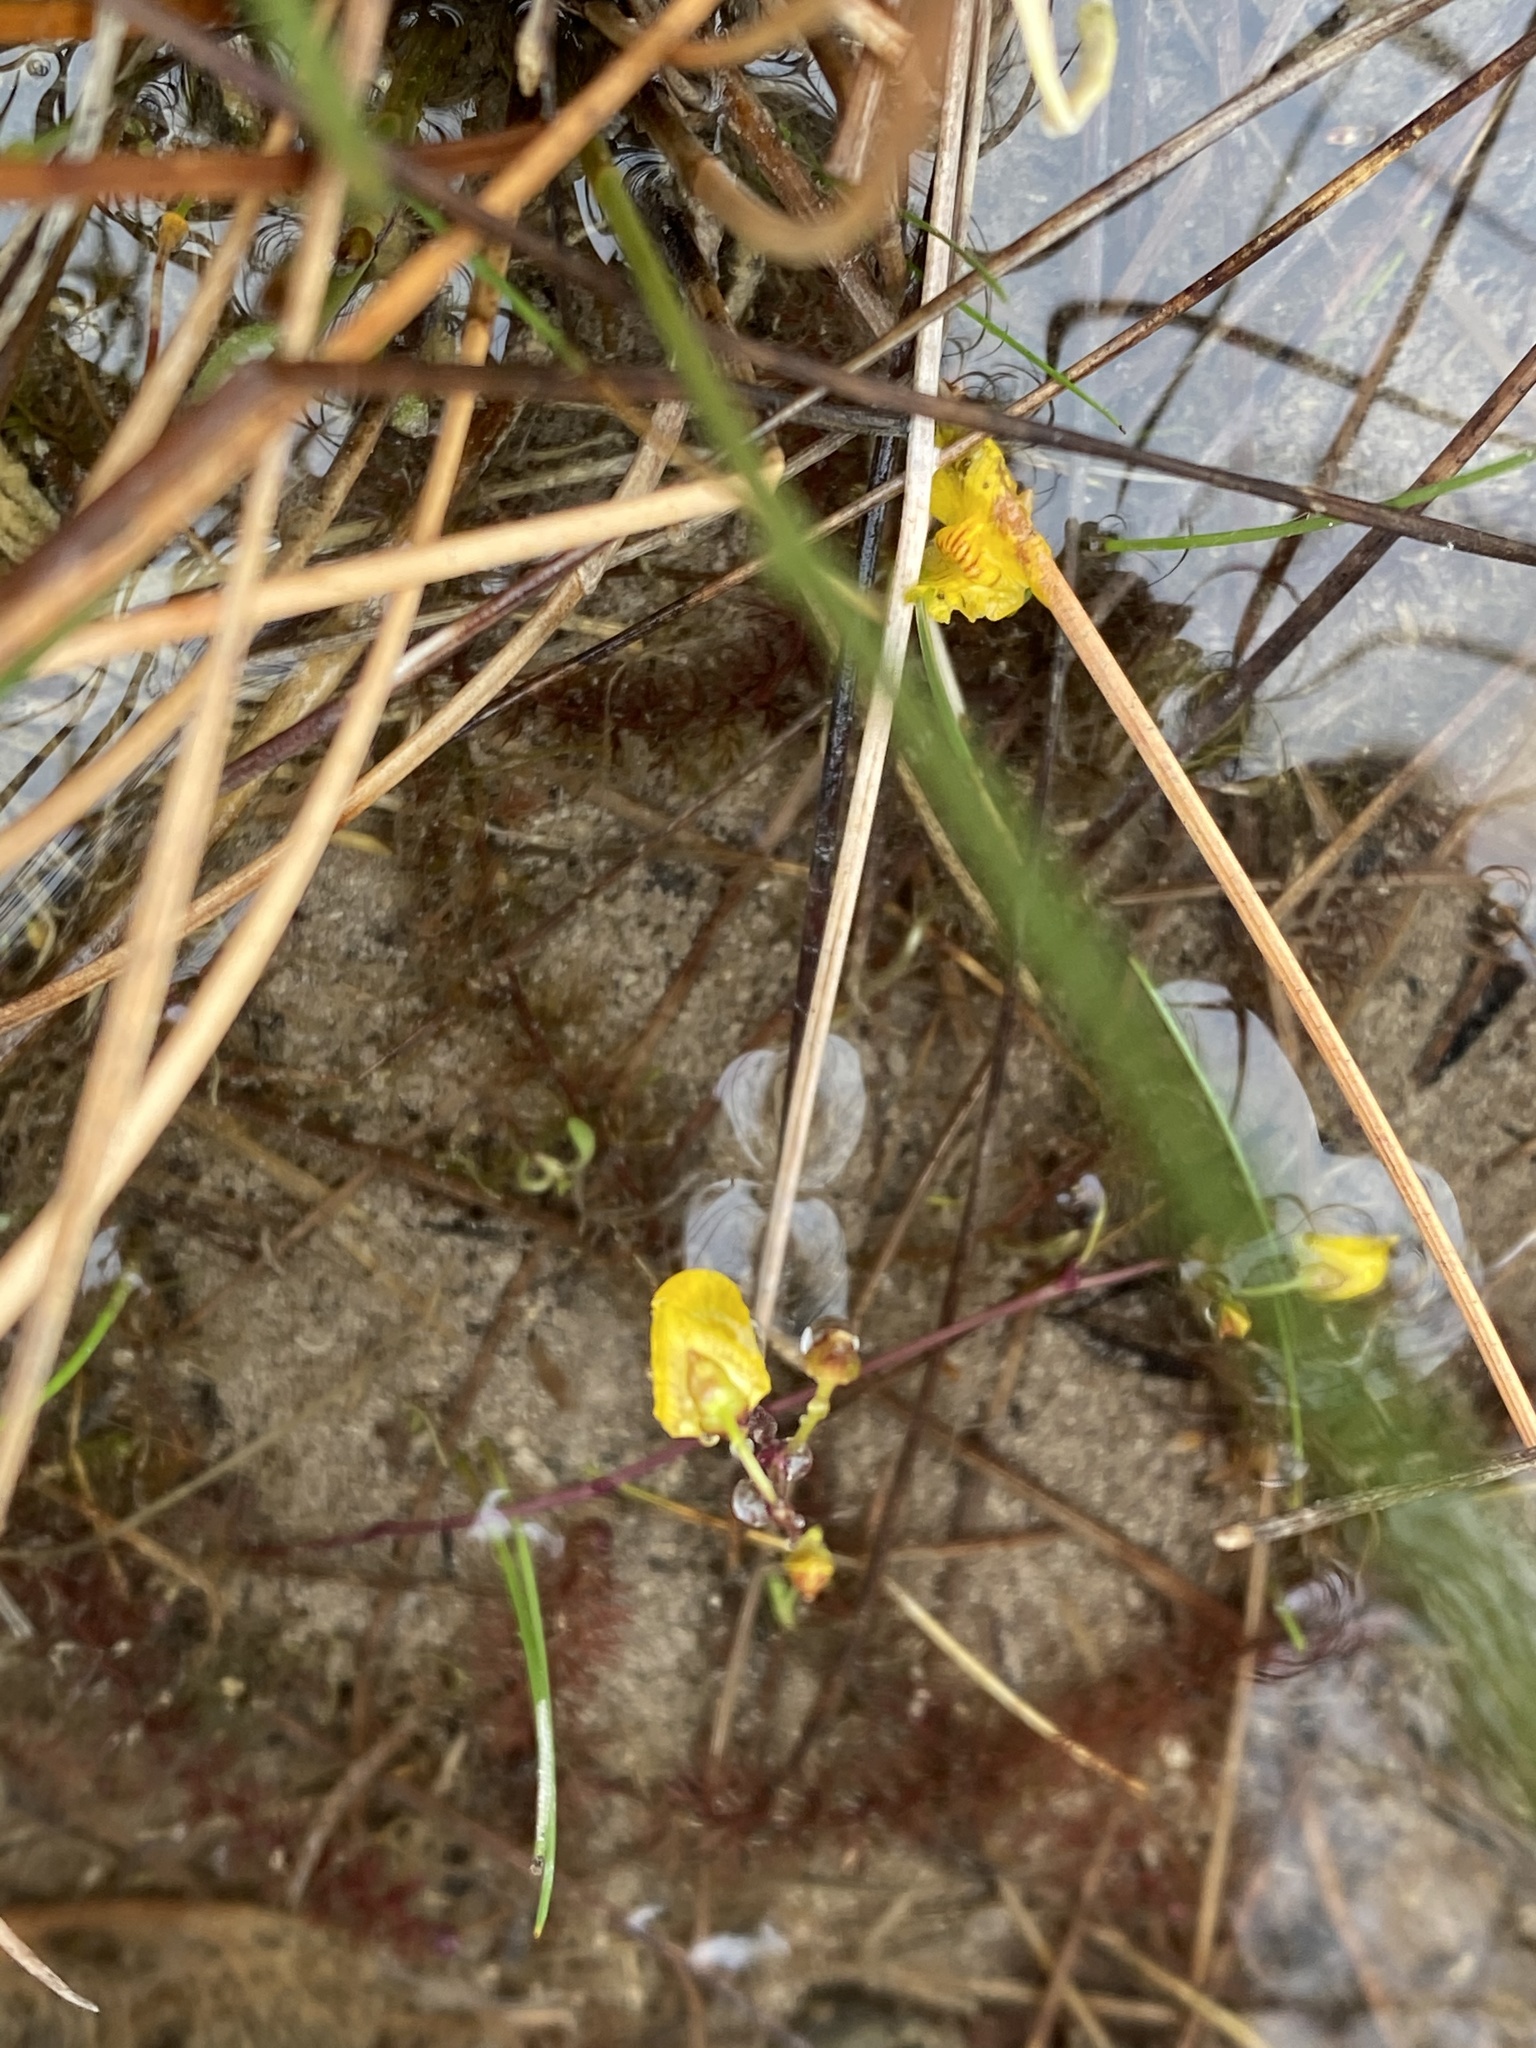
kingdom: Plantae
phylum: Tracheophyta
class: Magnoliopsida
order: Lamiales
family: Lentibulariaceae
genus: Utricularia
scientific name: Utricularia intermedia
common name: Intermediate bladderwort
